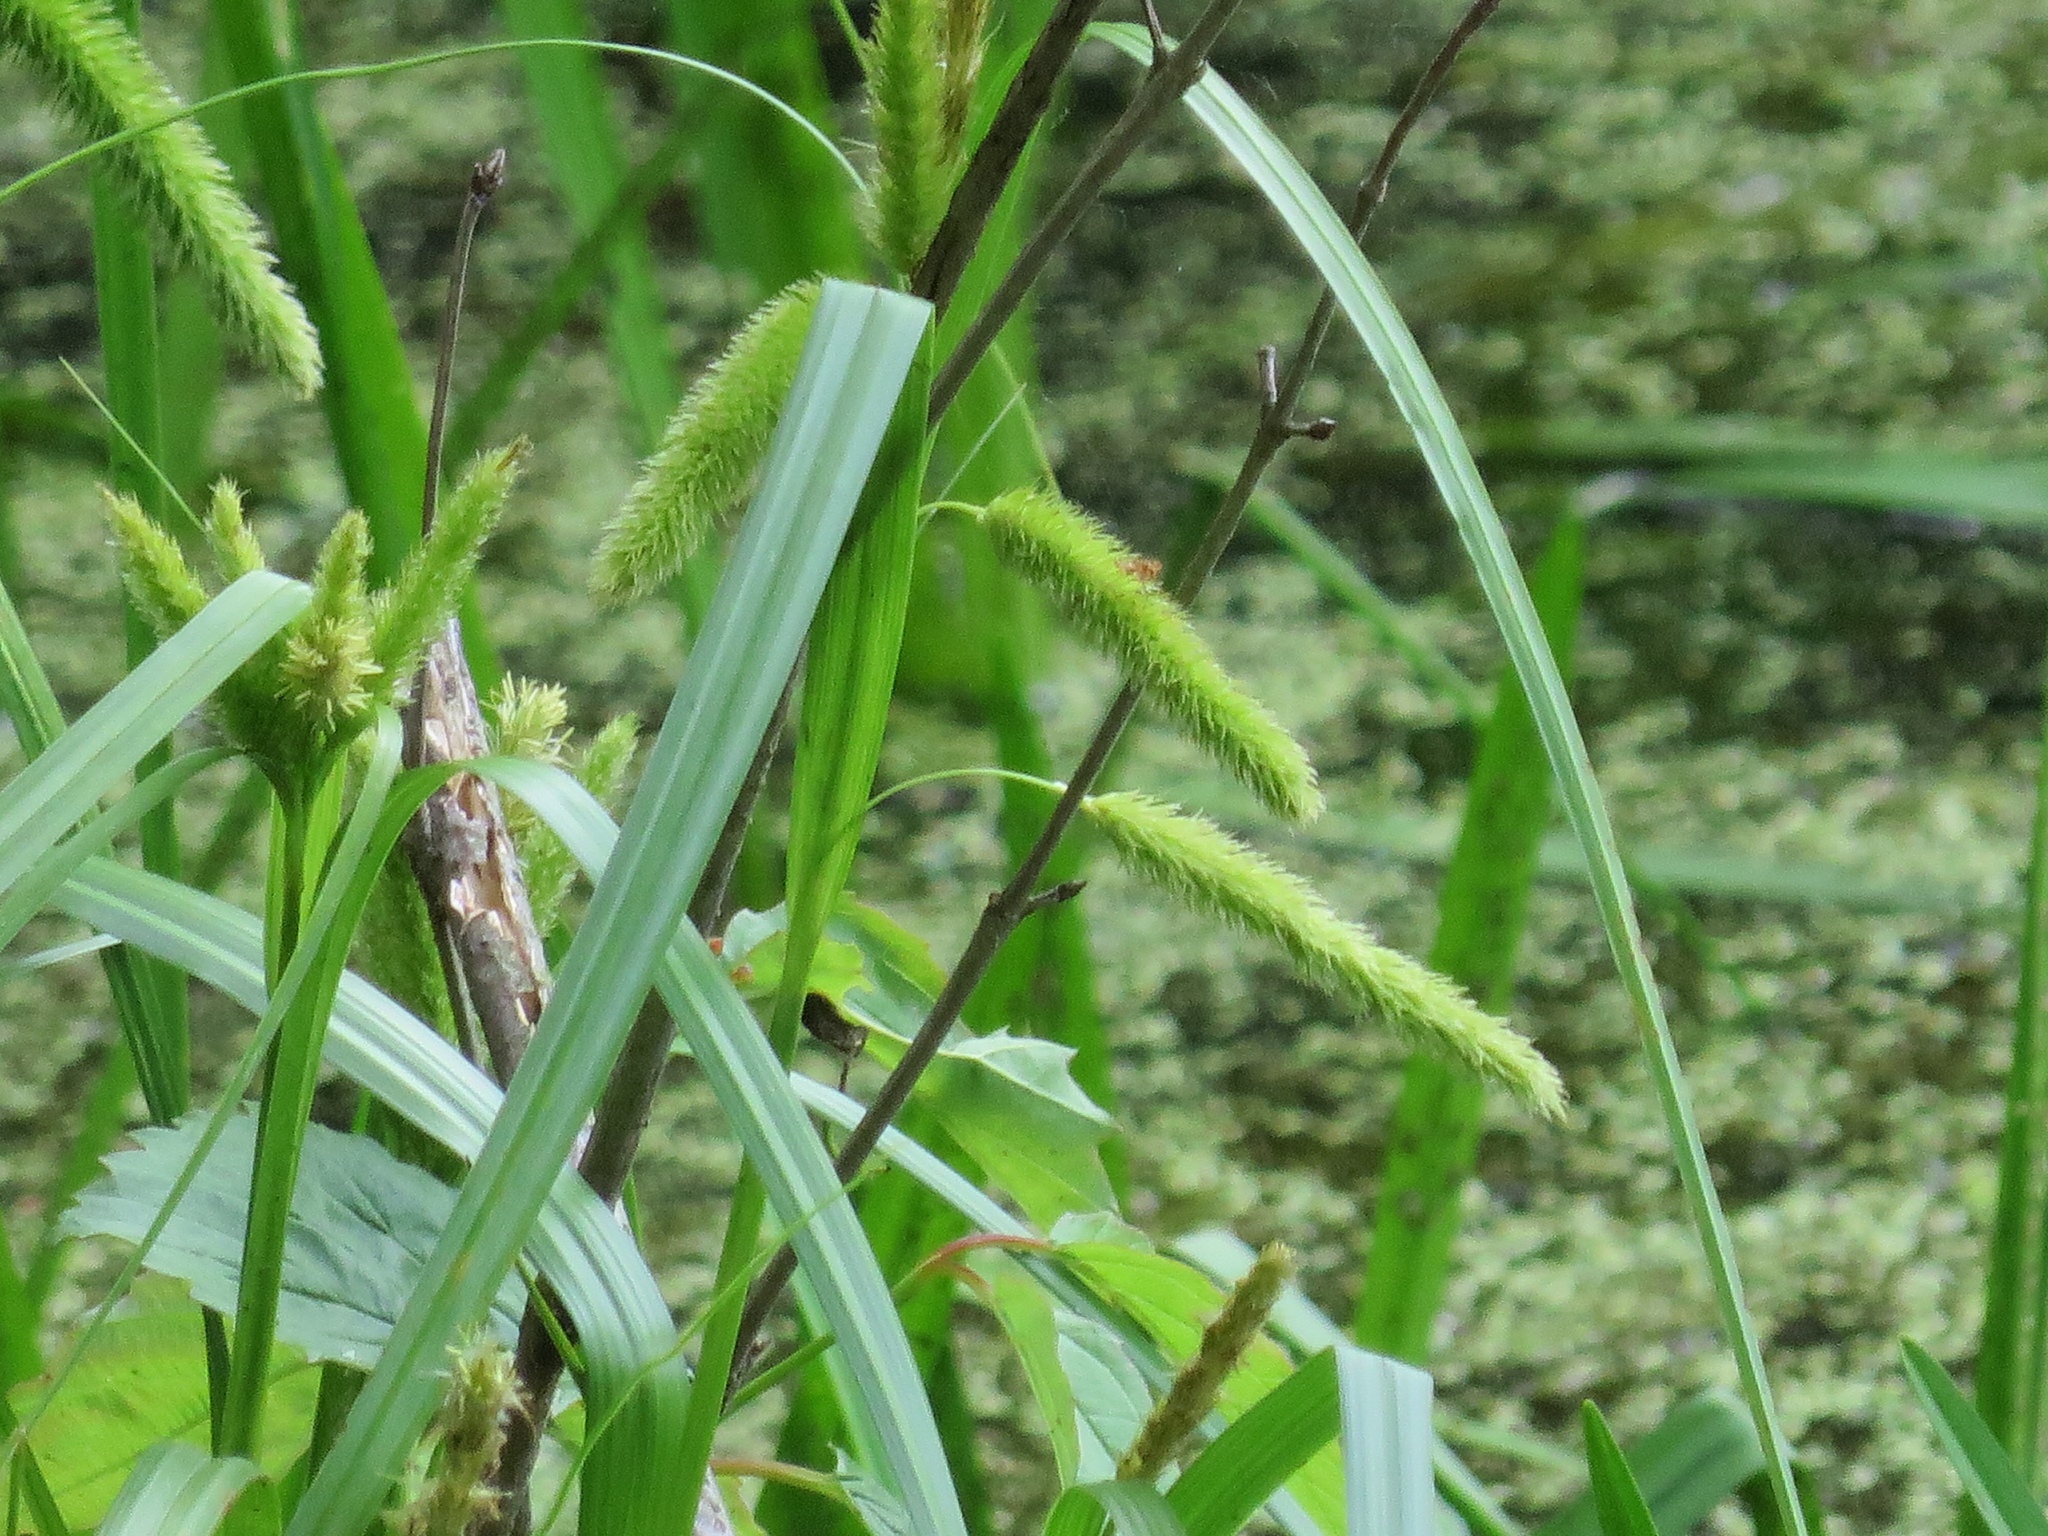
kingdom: Plantae
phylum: Tracheophyta
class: Liliopsida
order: Poales
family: Cyperaceae
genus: Carex
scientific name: Carex comosa
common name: Bristly sedge
